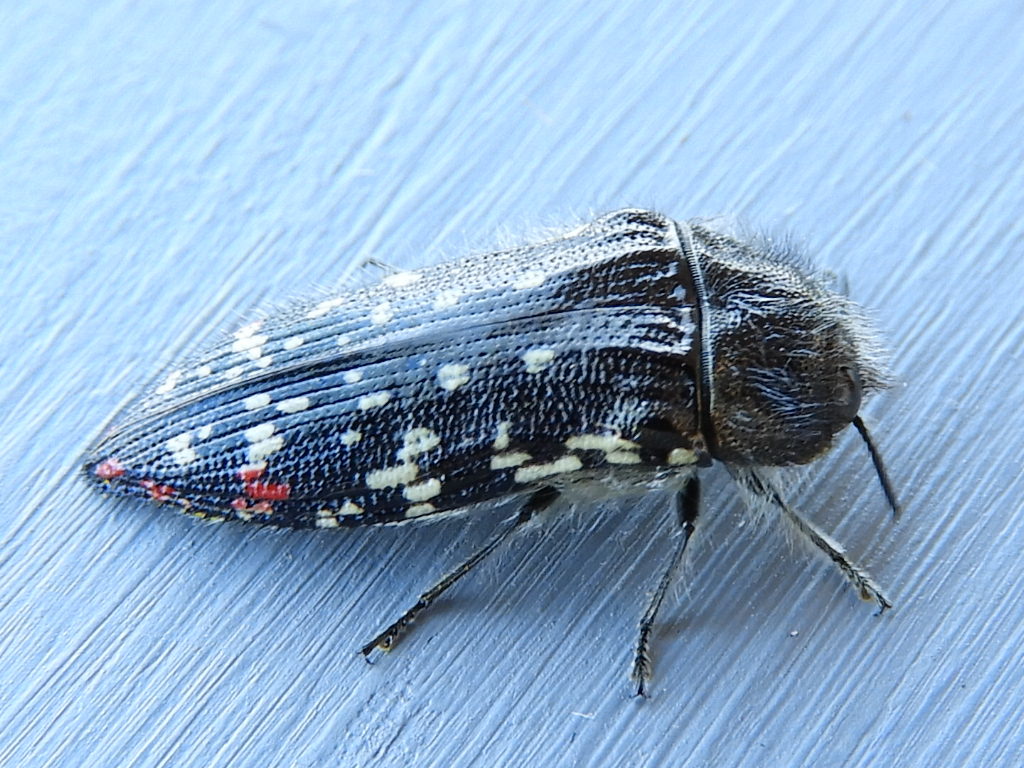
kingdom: Animalia
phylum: Arthropoda
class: Insecta
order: Coleoptera
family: Buprestidae
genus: Acmaeodera
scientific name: Acmaeodera rubronotata
